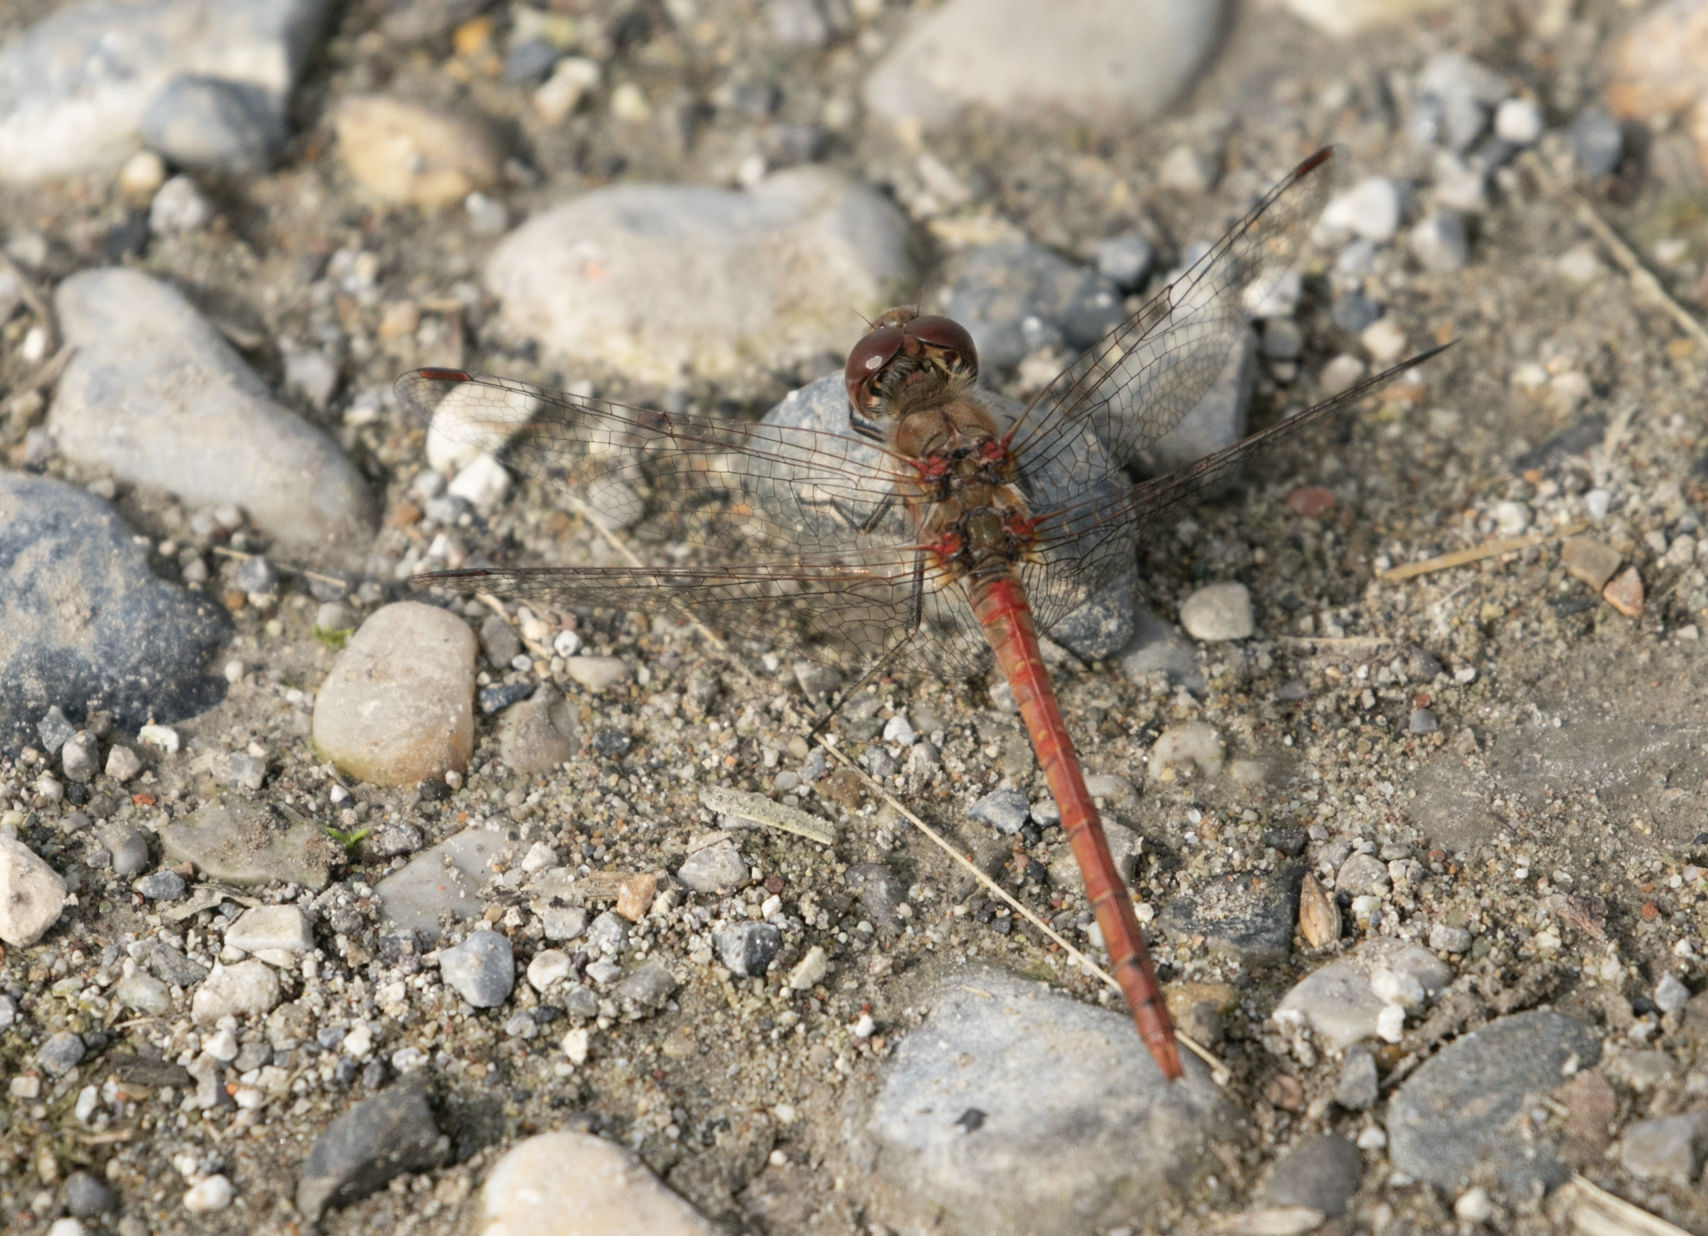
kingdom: Animalia
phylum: Arthropoda
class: Insecta
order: Odonata
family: Libellulidae
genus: Sympetrum
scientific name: Sympetrum striolatum
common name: Common darter
